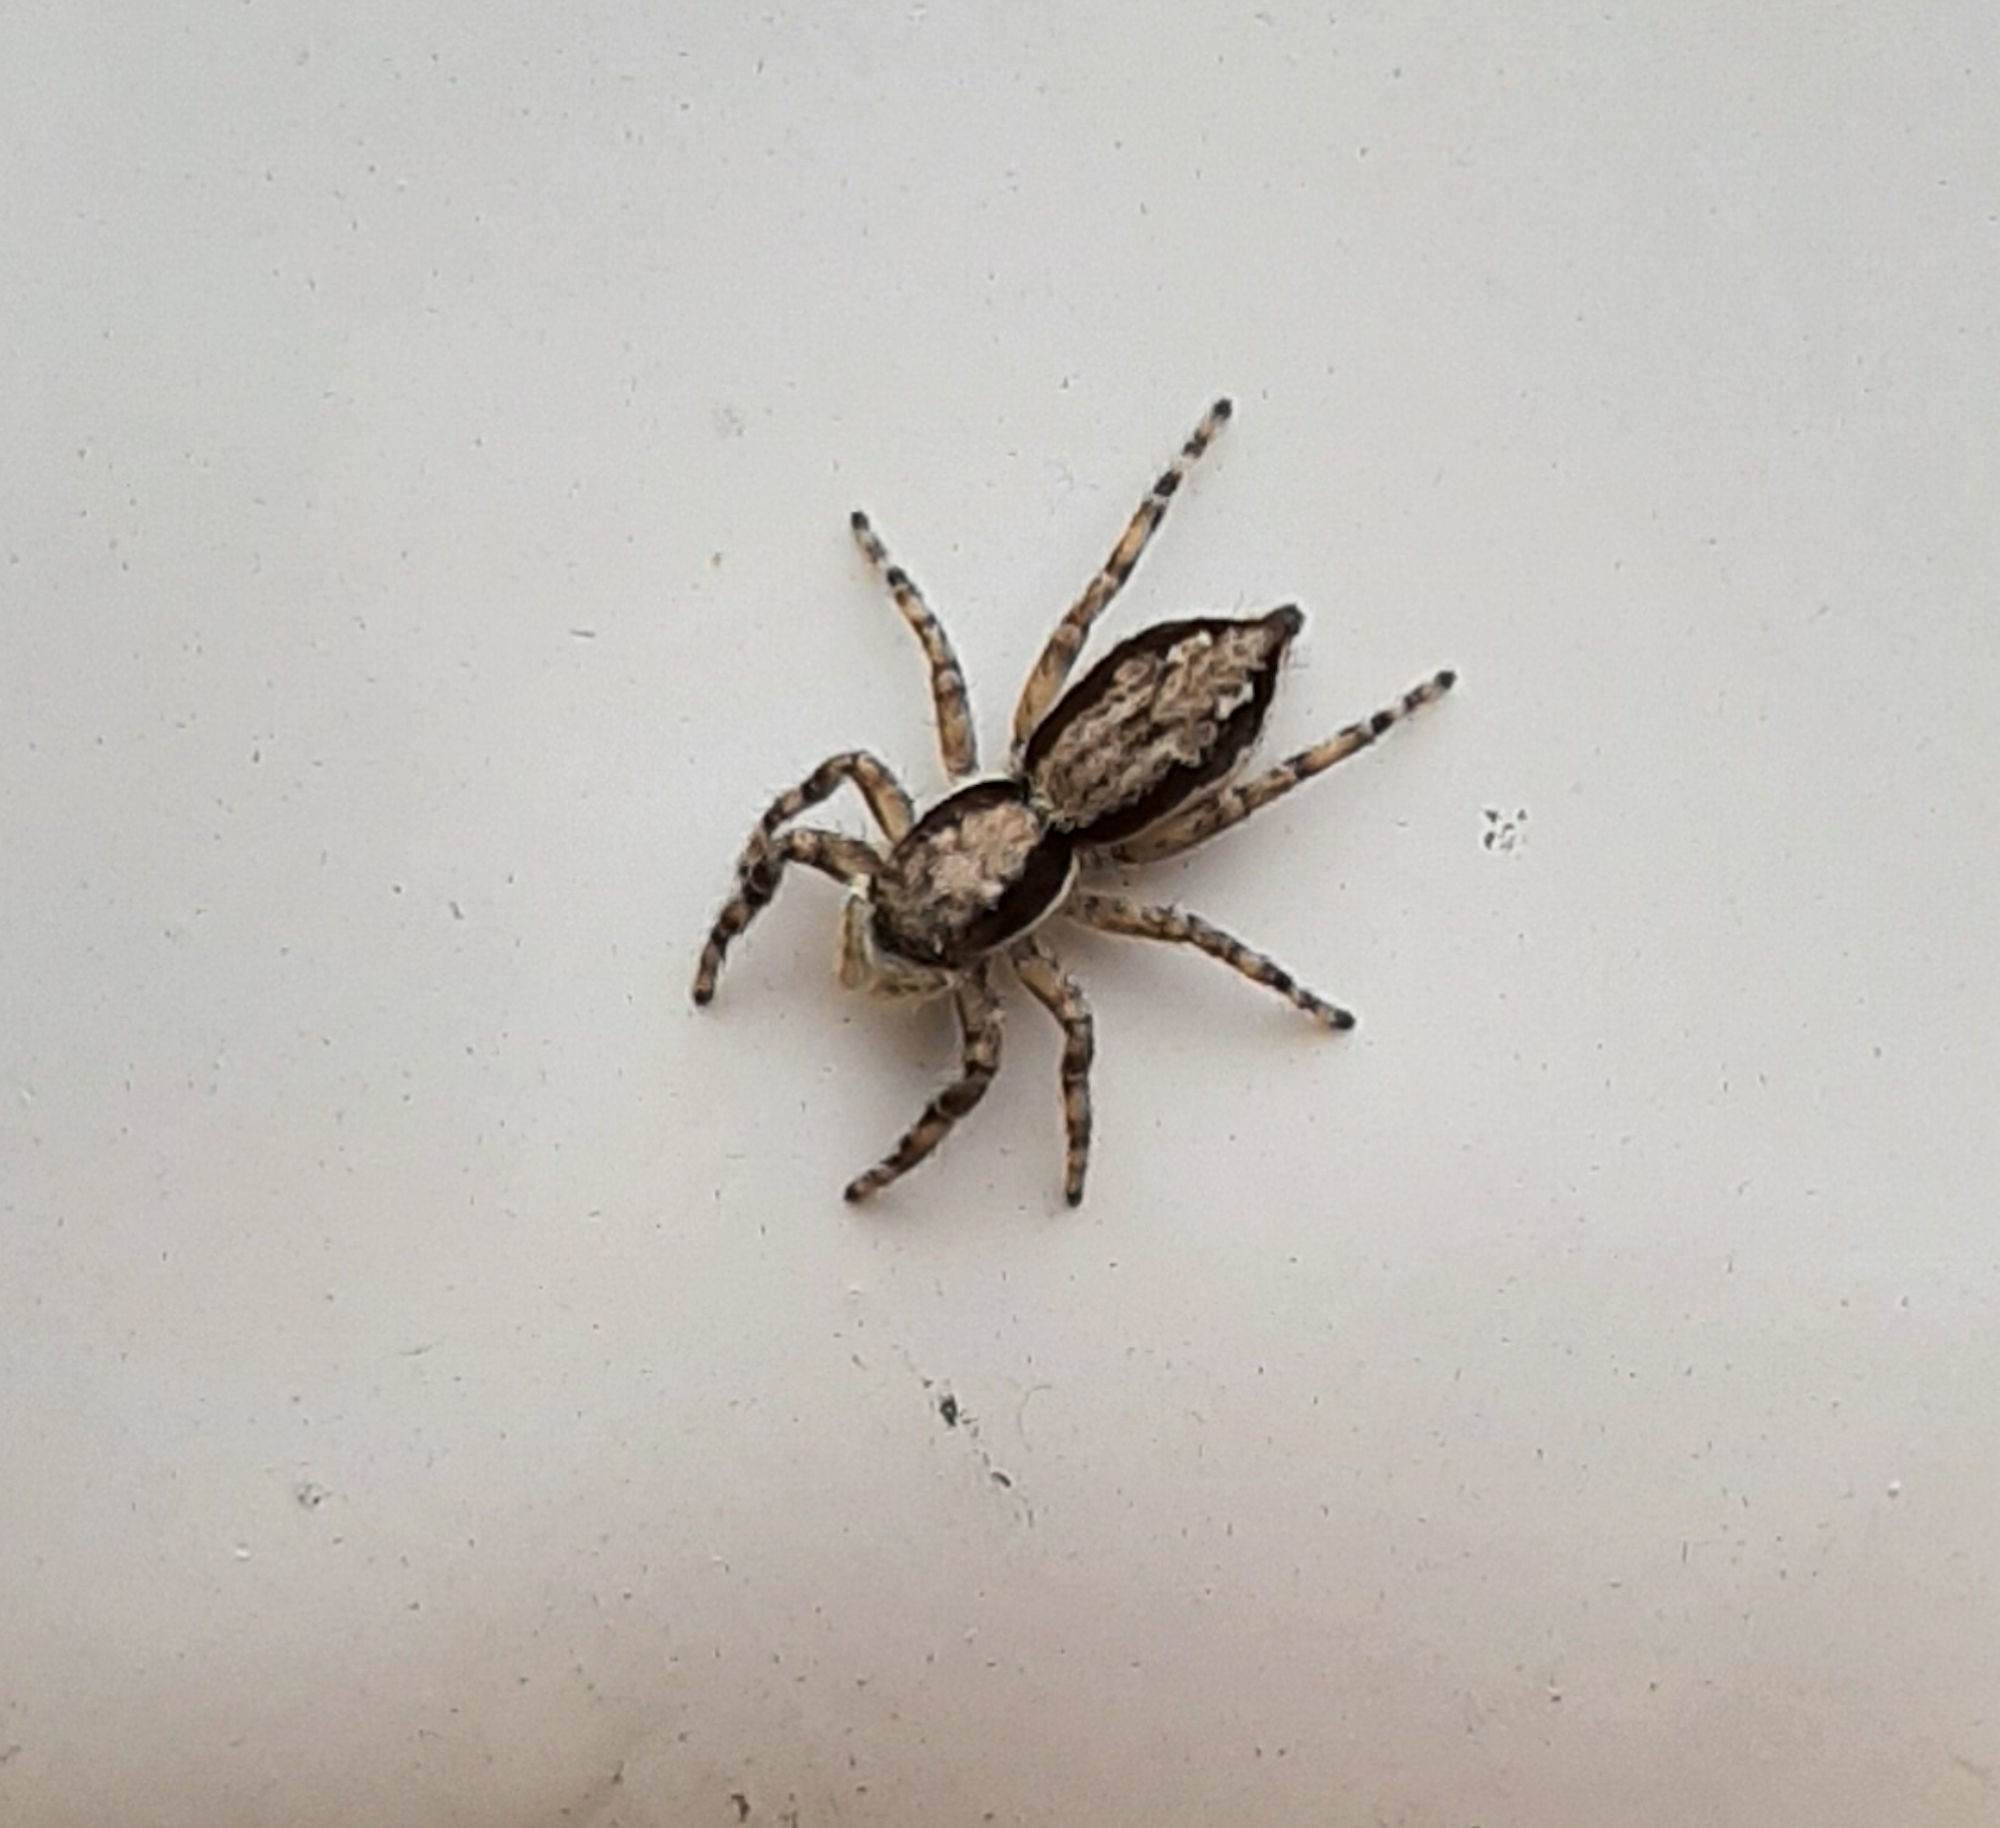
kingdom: Animalia
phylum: Arthropoda
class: Arachnida
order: Araneae
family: Salticidae
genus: Menemerus
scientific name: Menemerus bivittatus
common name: Gray wall jumper
